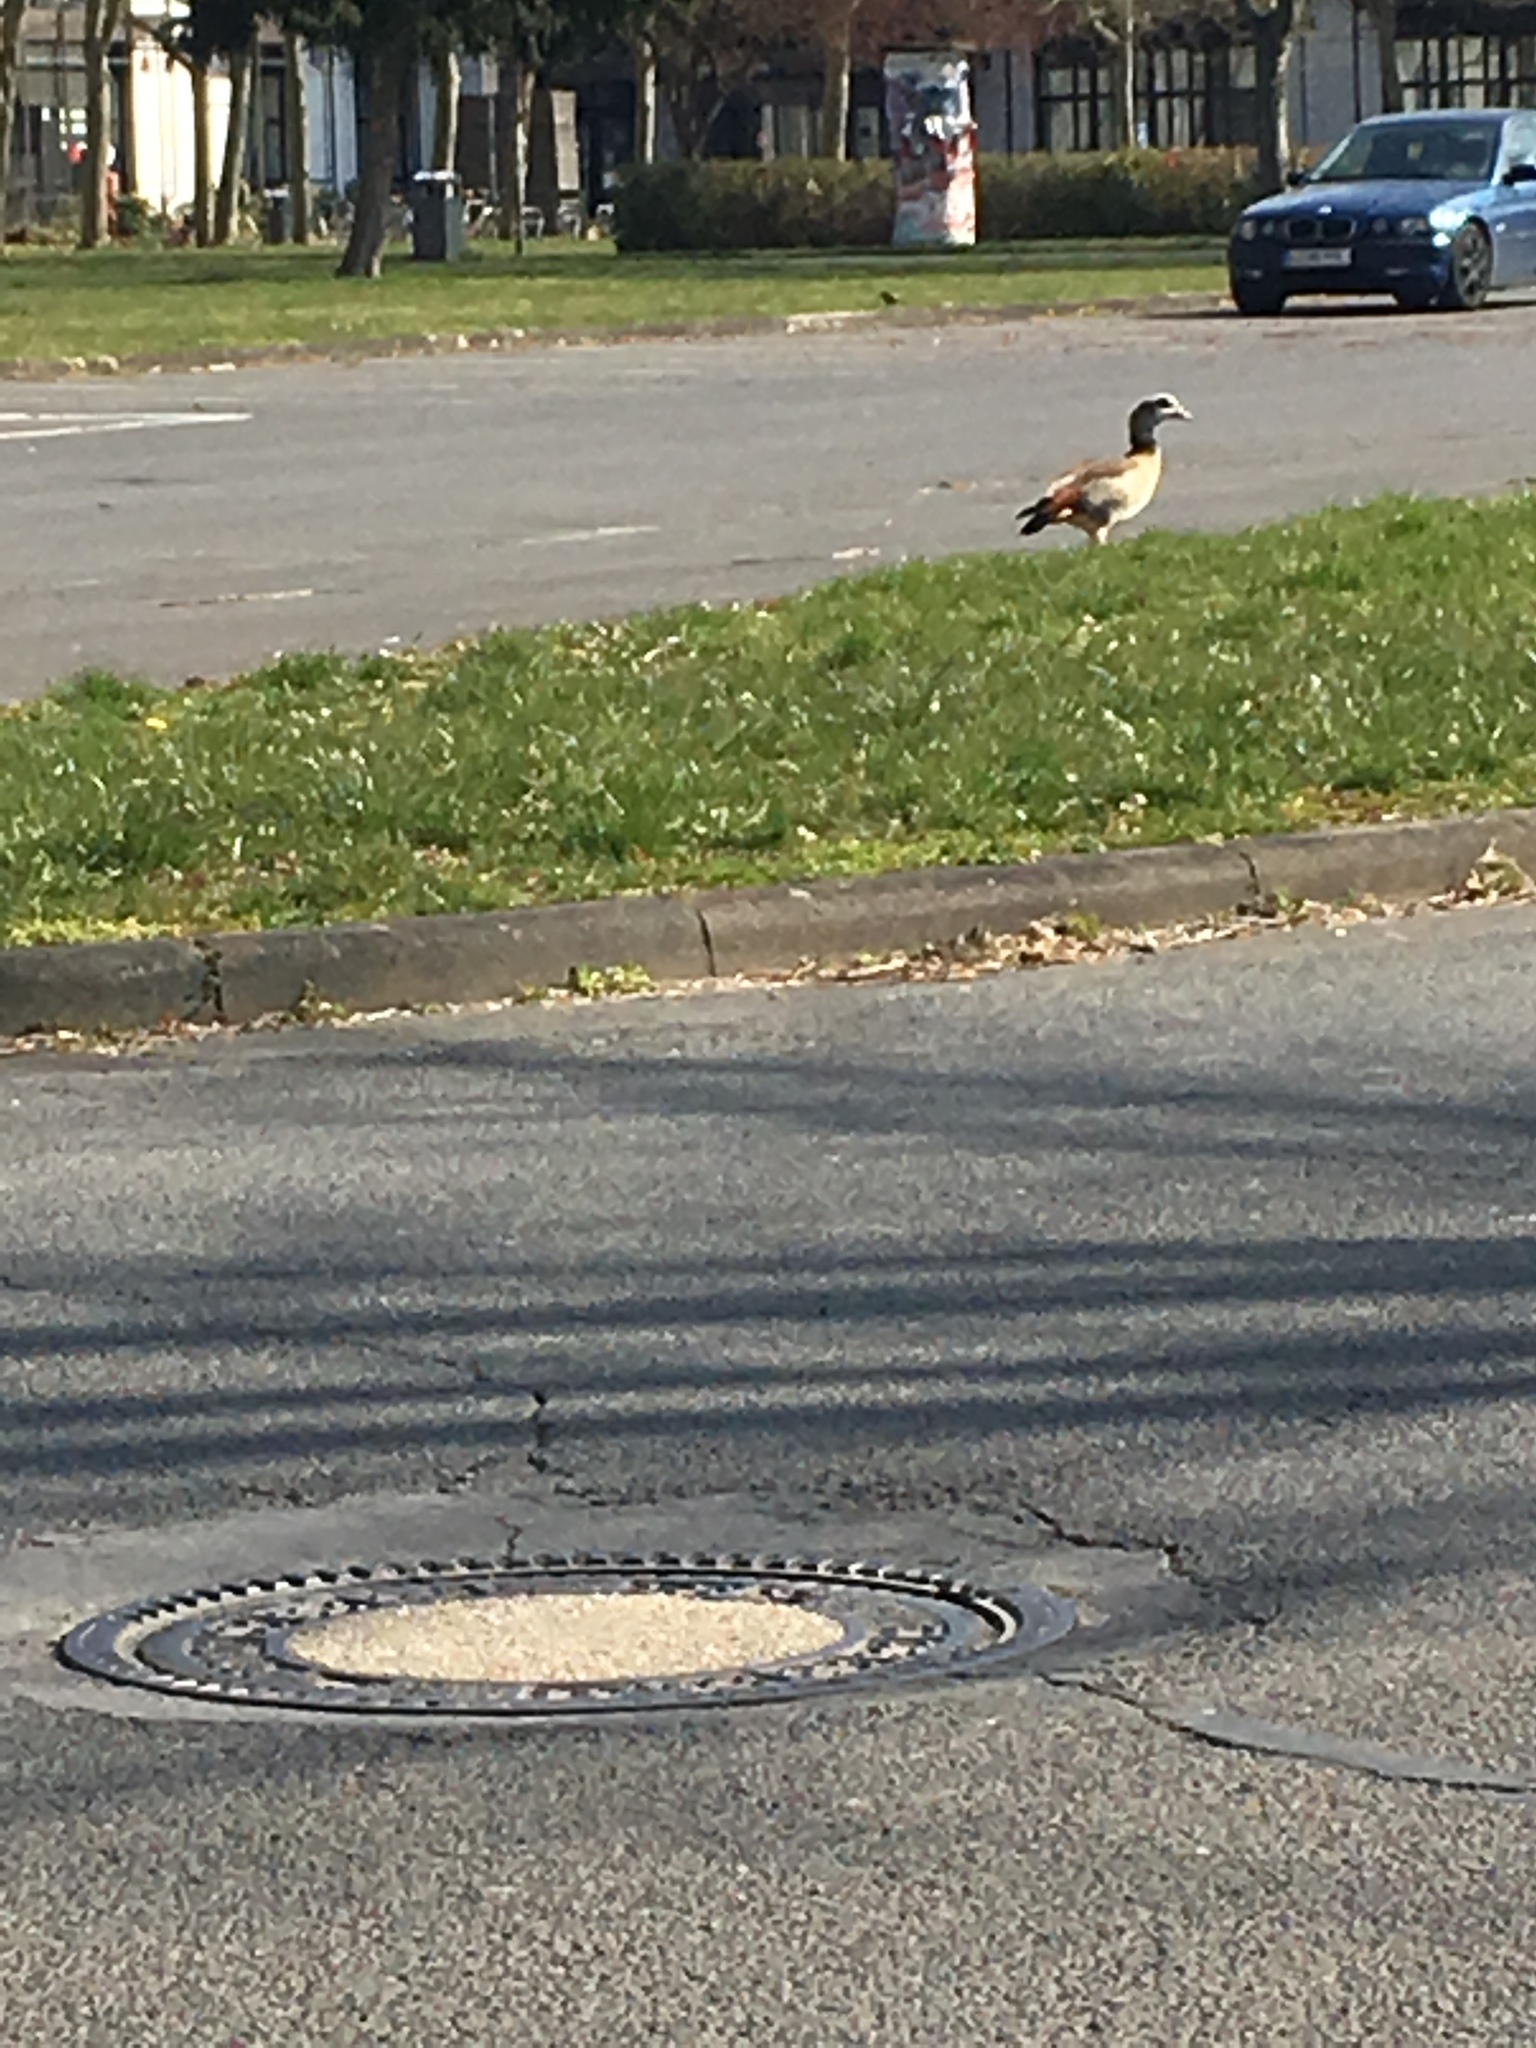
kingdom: Animalia
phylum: Chordata
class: Aves
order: Anseriformes
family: Anatidae
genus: Alopochen
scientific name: Alopochen aegyptiaca
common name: Egyptian goose
